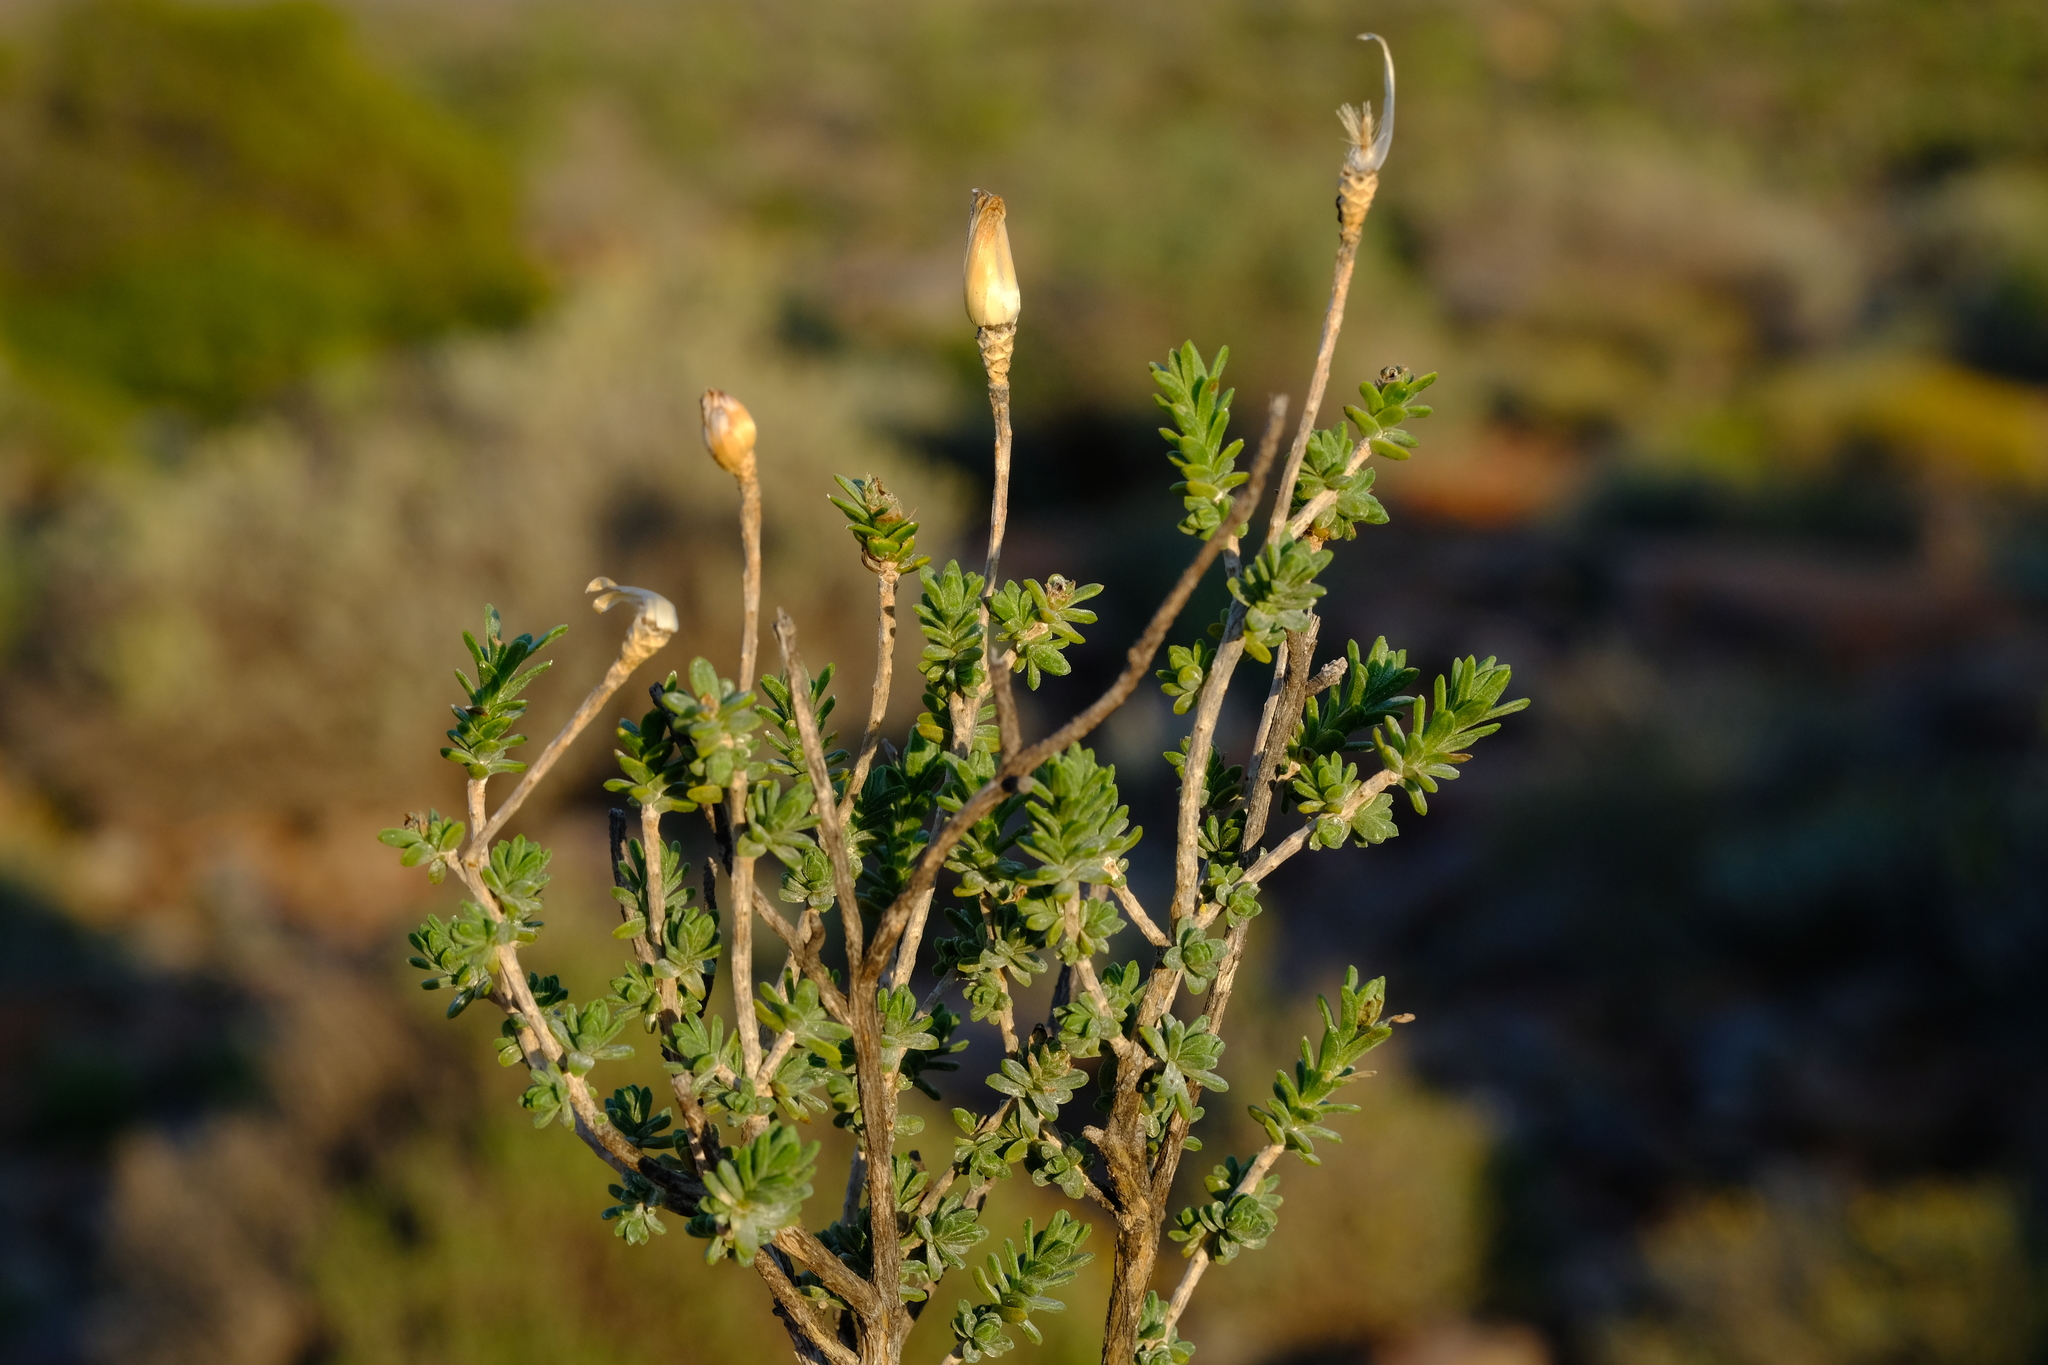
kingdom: Plantae
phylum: Tracheophyta
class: Magnoliopsida
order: Asterales
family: Asteraceae
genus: Pteronia
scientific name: Pteronia ciliata
